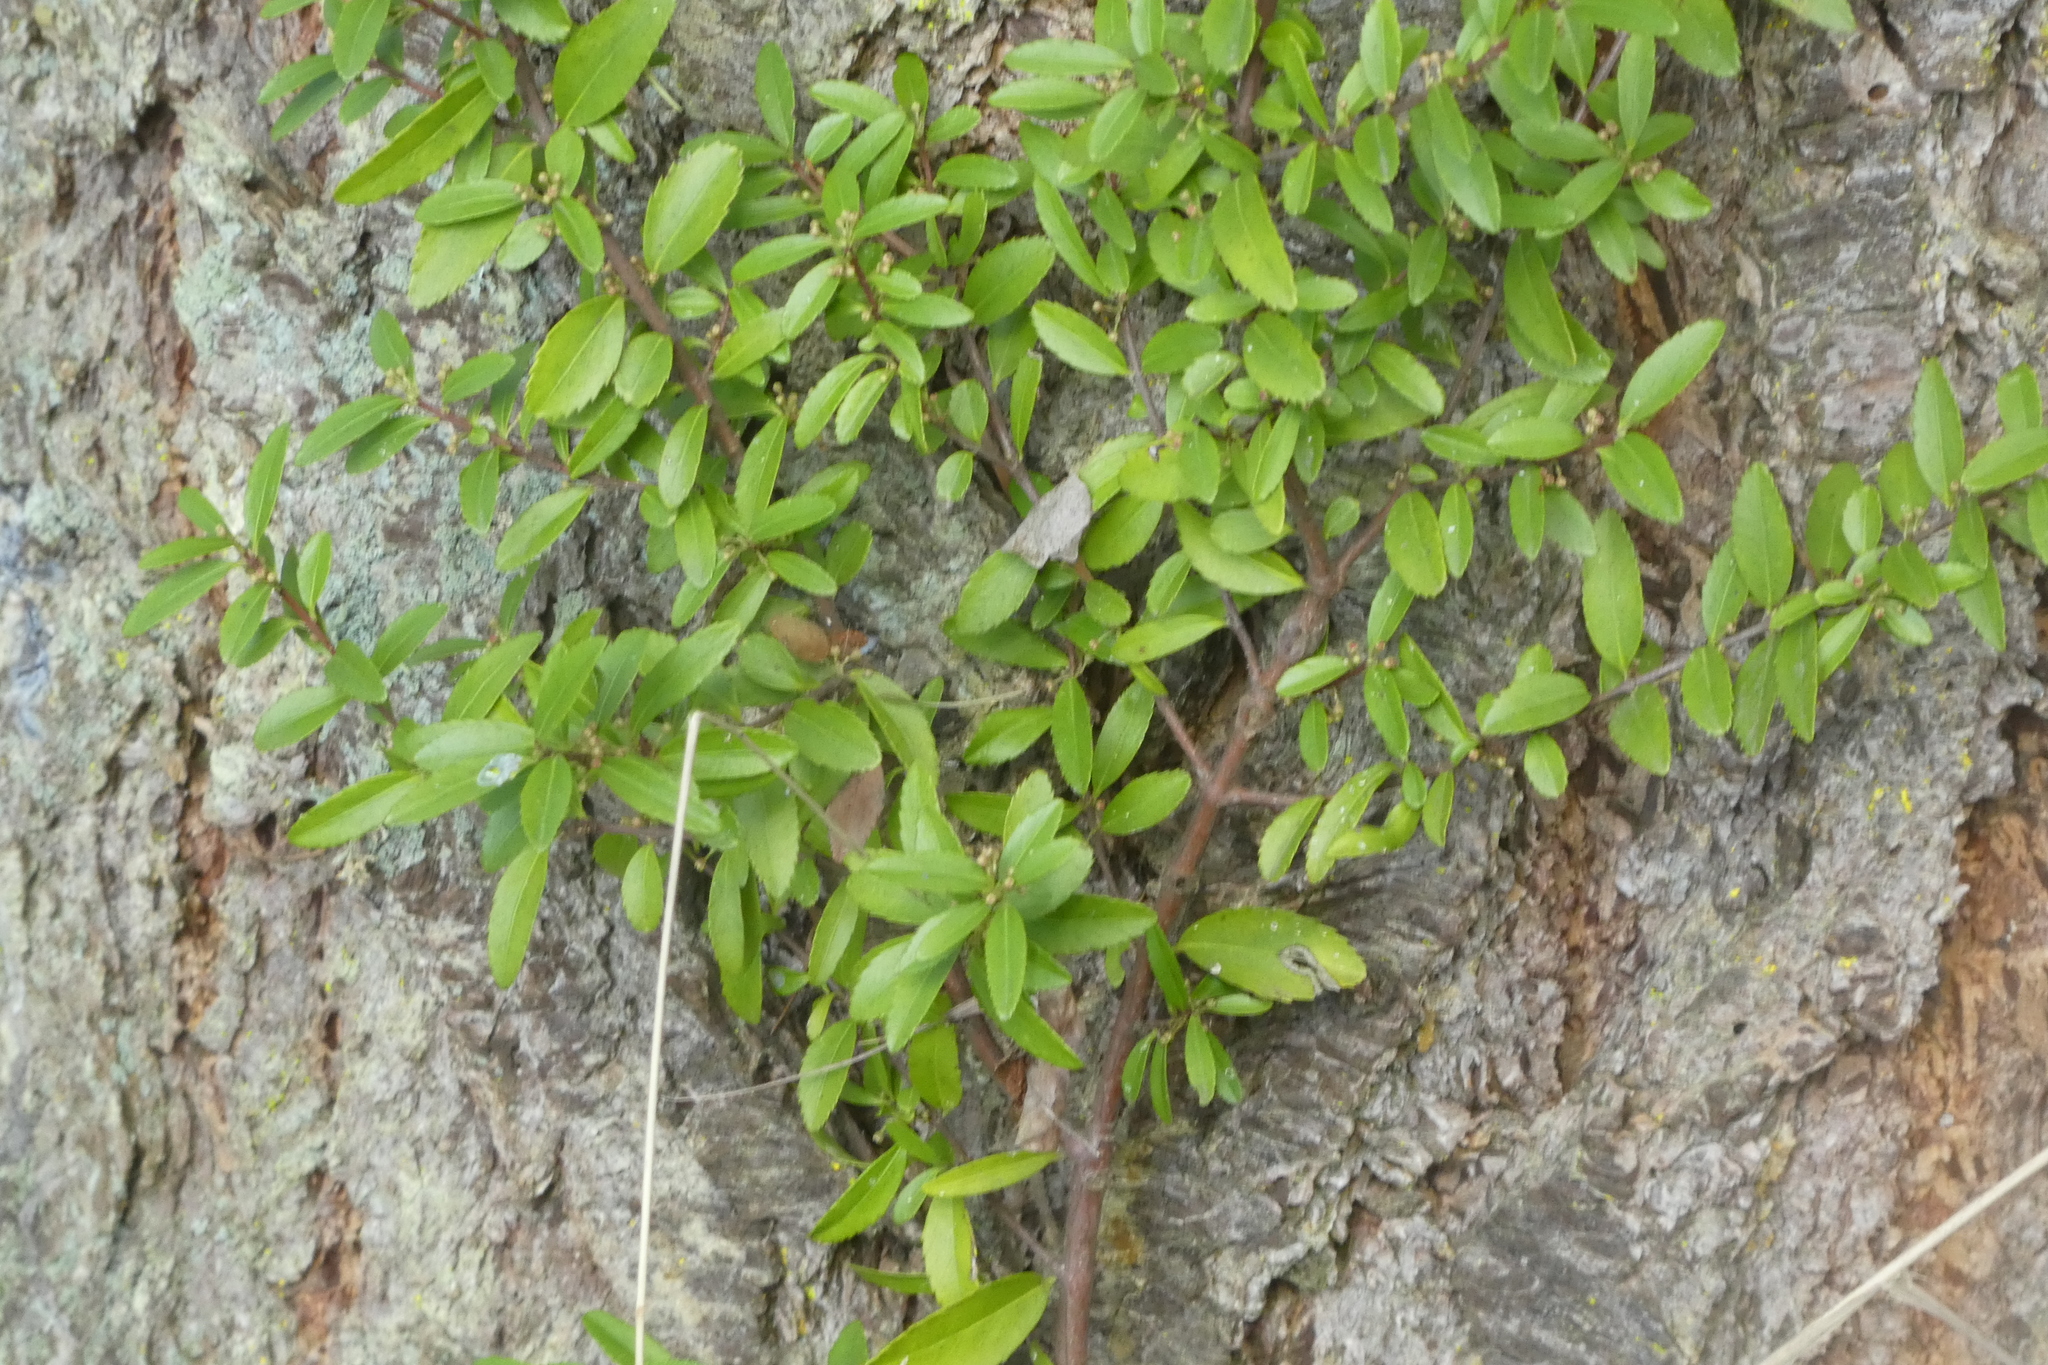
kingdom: Plantae
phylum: Tracheophyta
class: Magnoliopsida
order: Celastrales
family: Celastraceae
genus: Paxistima
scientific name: Paxistima myrsinites
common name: Mountain-lover
